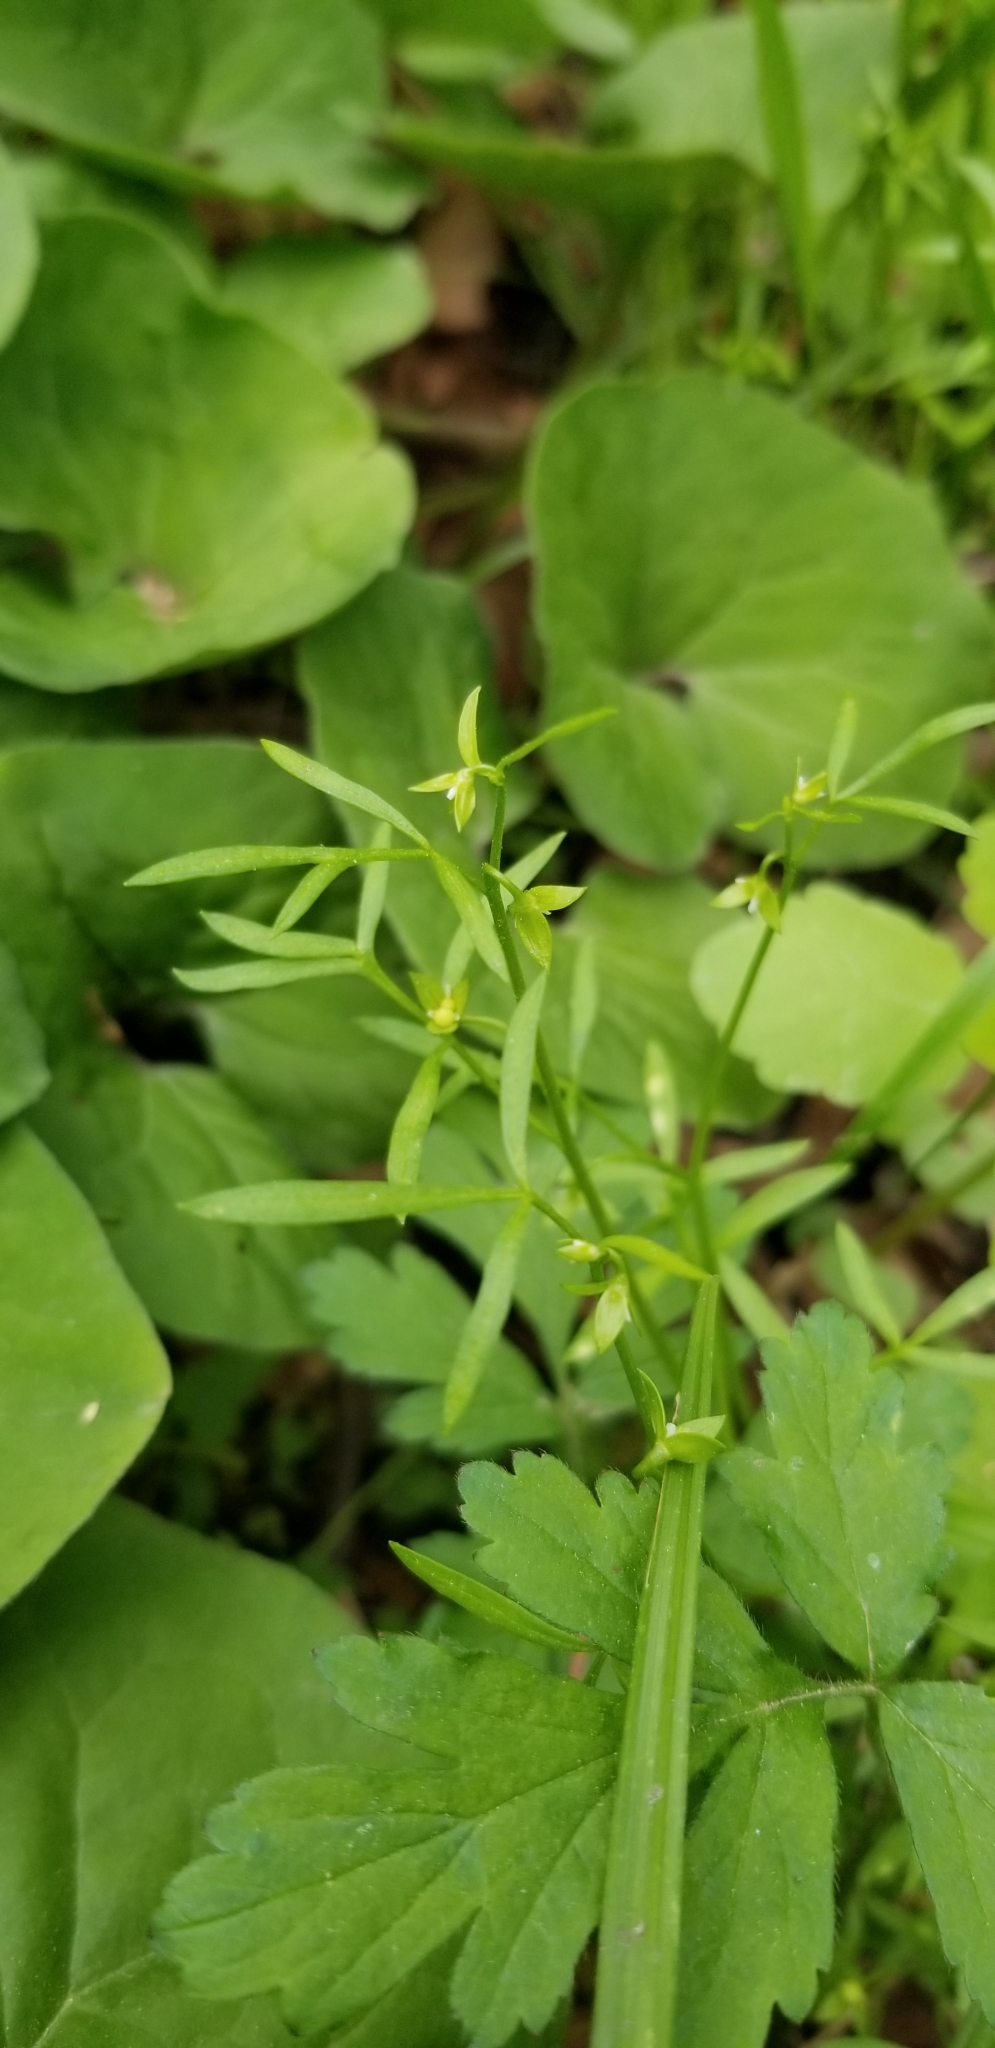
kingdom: Plantae
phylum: Tracheophyta
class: Magnoliopsida
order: Brassicales
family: Limnanthaceae
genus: Floerkea
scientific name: Floerkea proserpinacoides
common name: False mermaid
